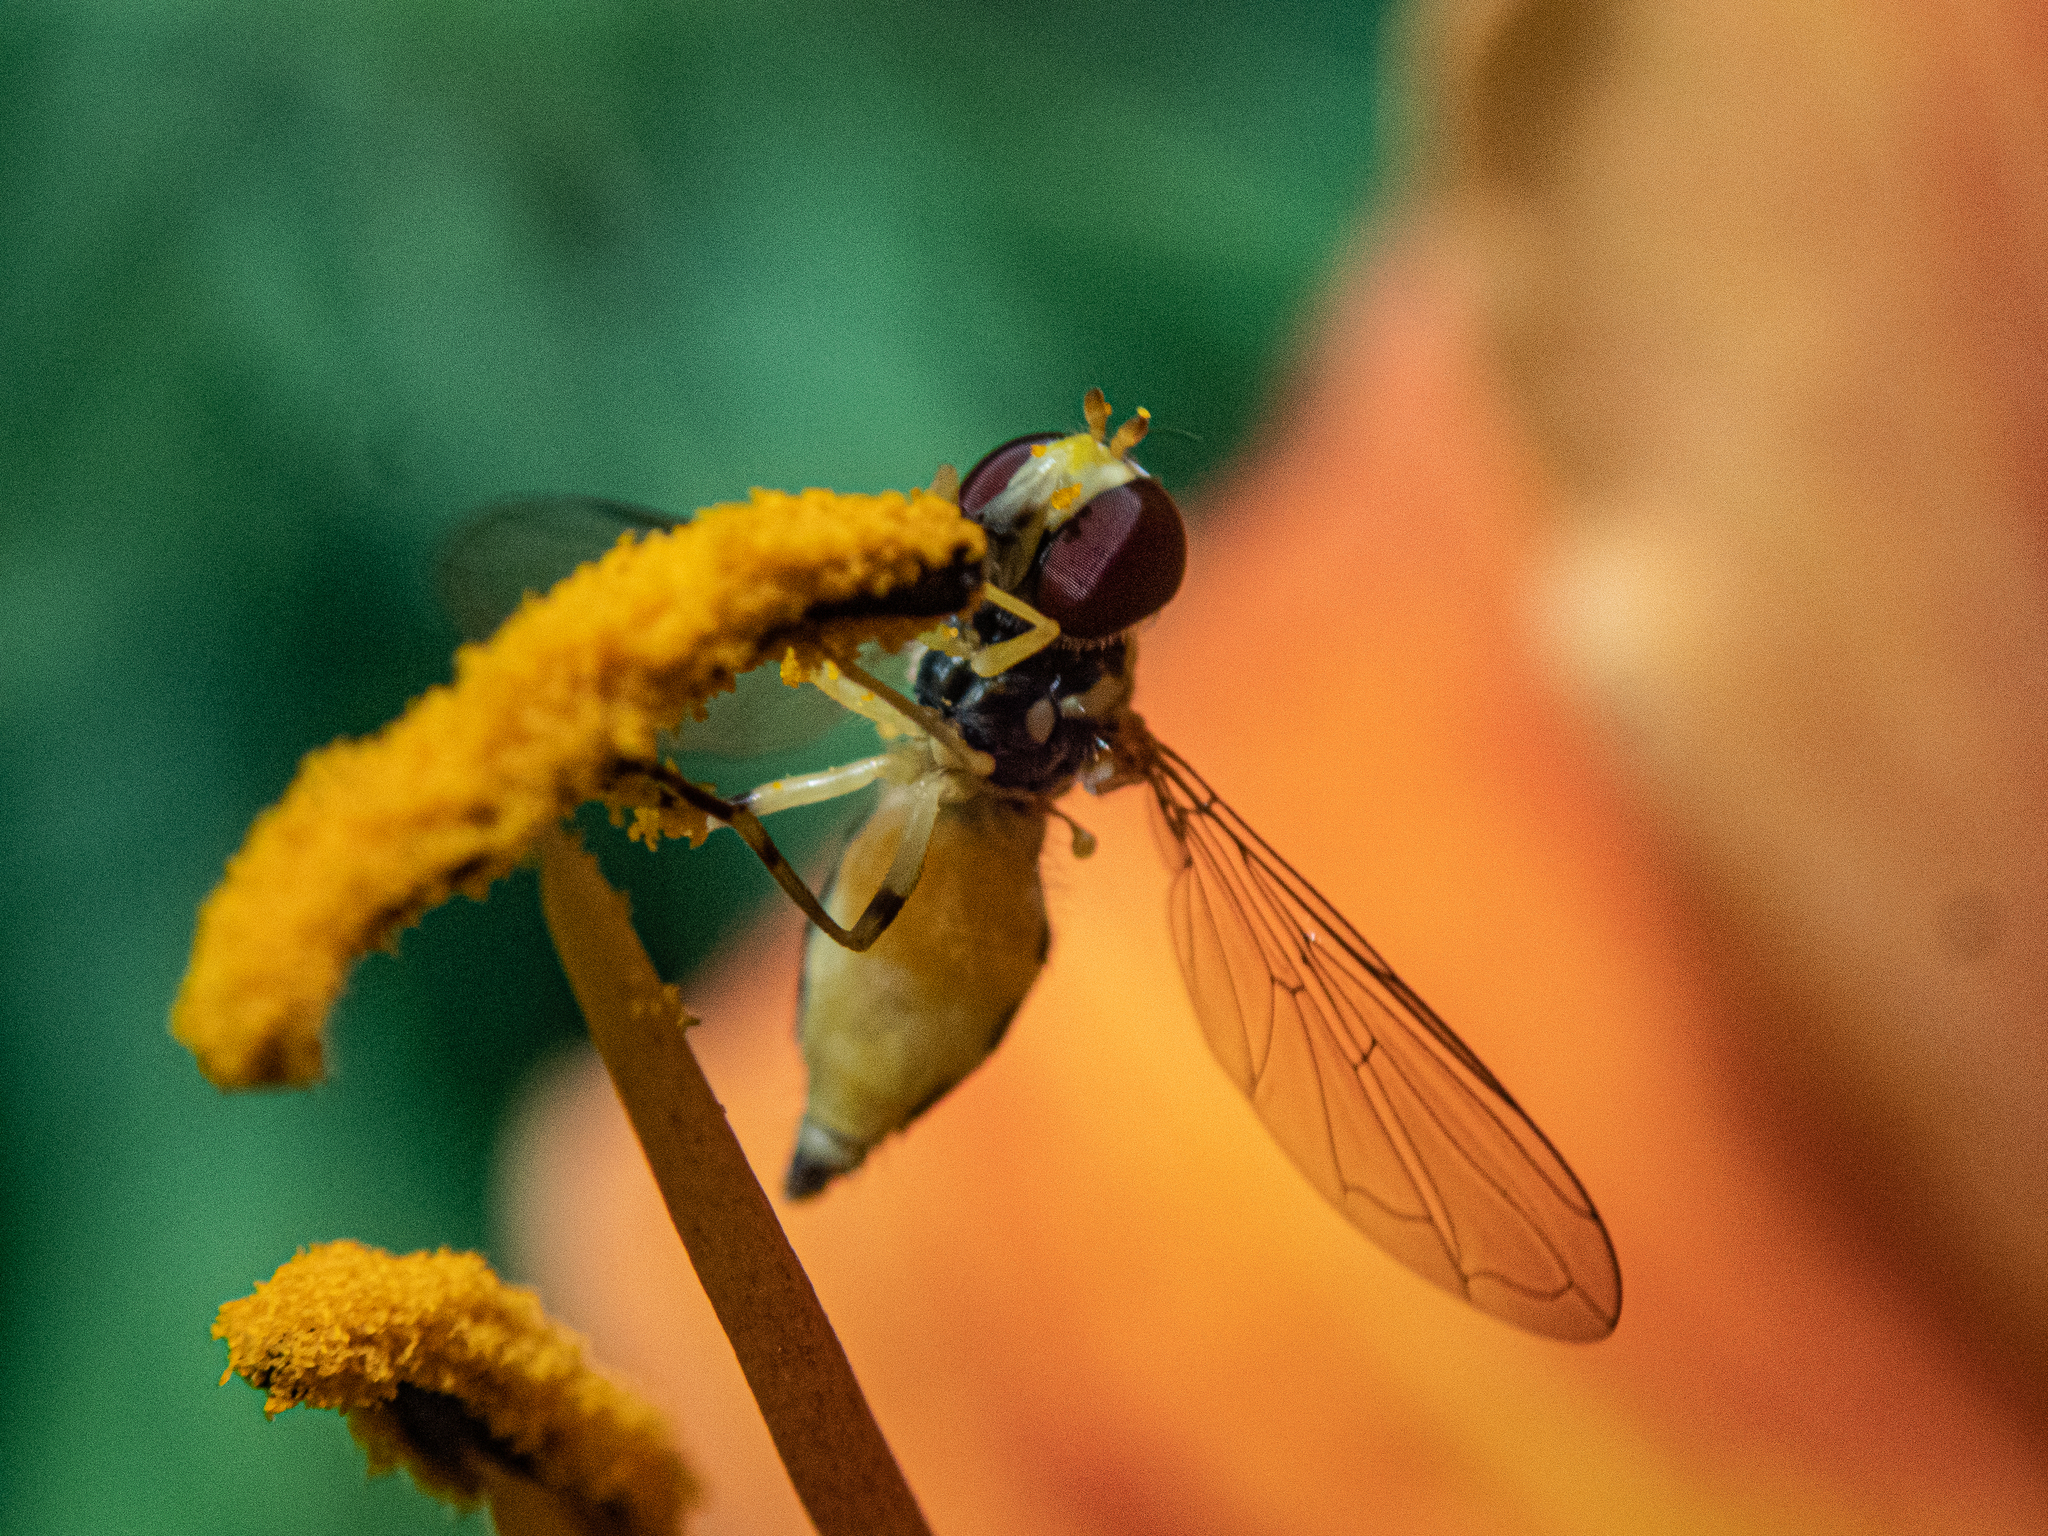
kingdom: Animalia
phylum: Arthropoda
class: Insecta
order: Diptera
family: Syrphidae
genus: Toxomerus
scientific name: Toxomerus geminatus
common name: Eastern calligrapher
